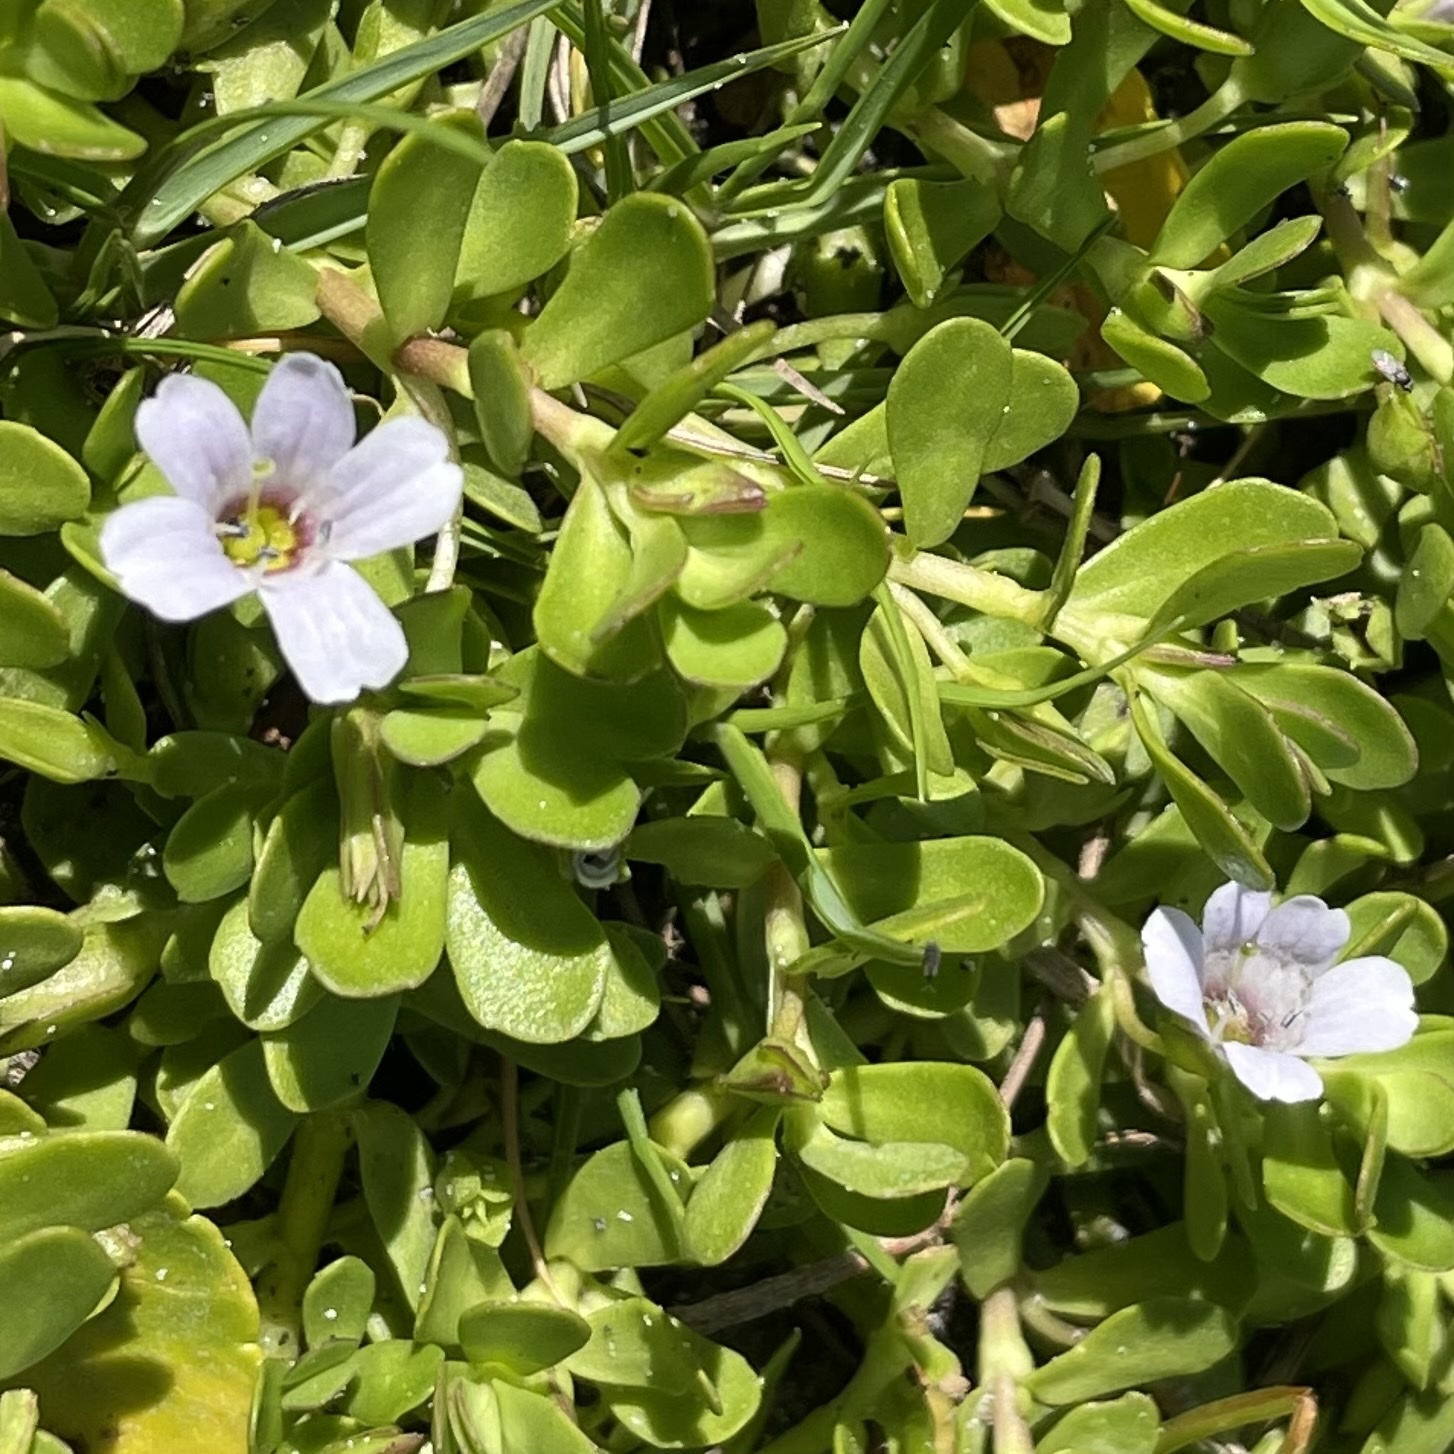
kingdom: Plantae
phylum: Tracheophyta
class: Magnoliopsida
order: Lamiales
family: Plantaginaceae
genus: Bacopa
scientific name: Bacopa monnieri
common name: Indian-pennywort
